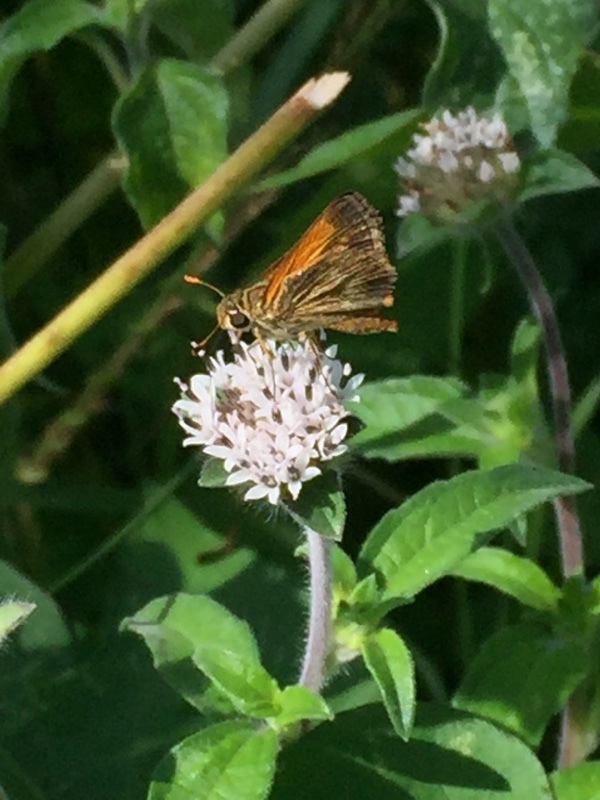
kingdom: Plantae
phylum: Tracheophyta
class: Magnoliopsida
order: Asterales
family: Asteraceae
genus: Lagascea
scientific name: Lagascea mollis
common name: Silkleaf
